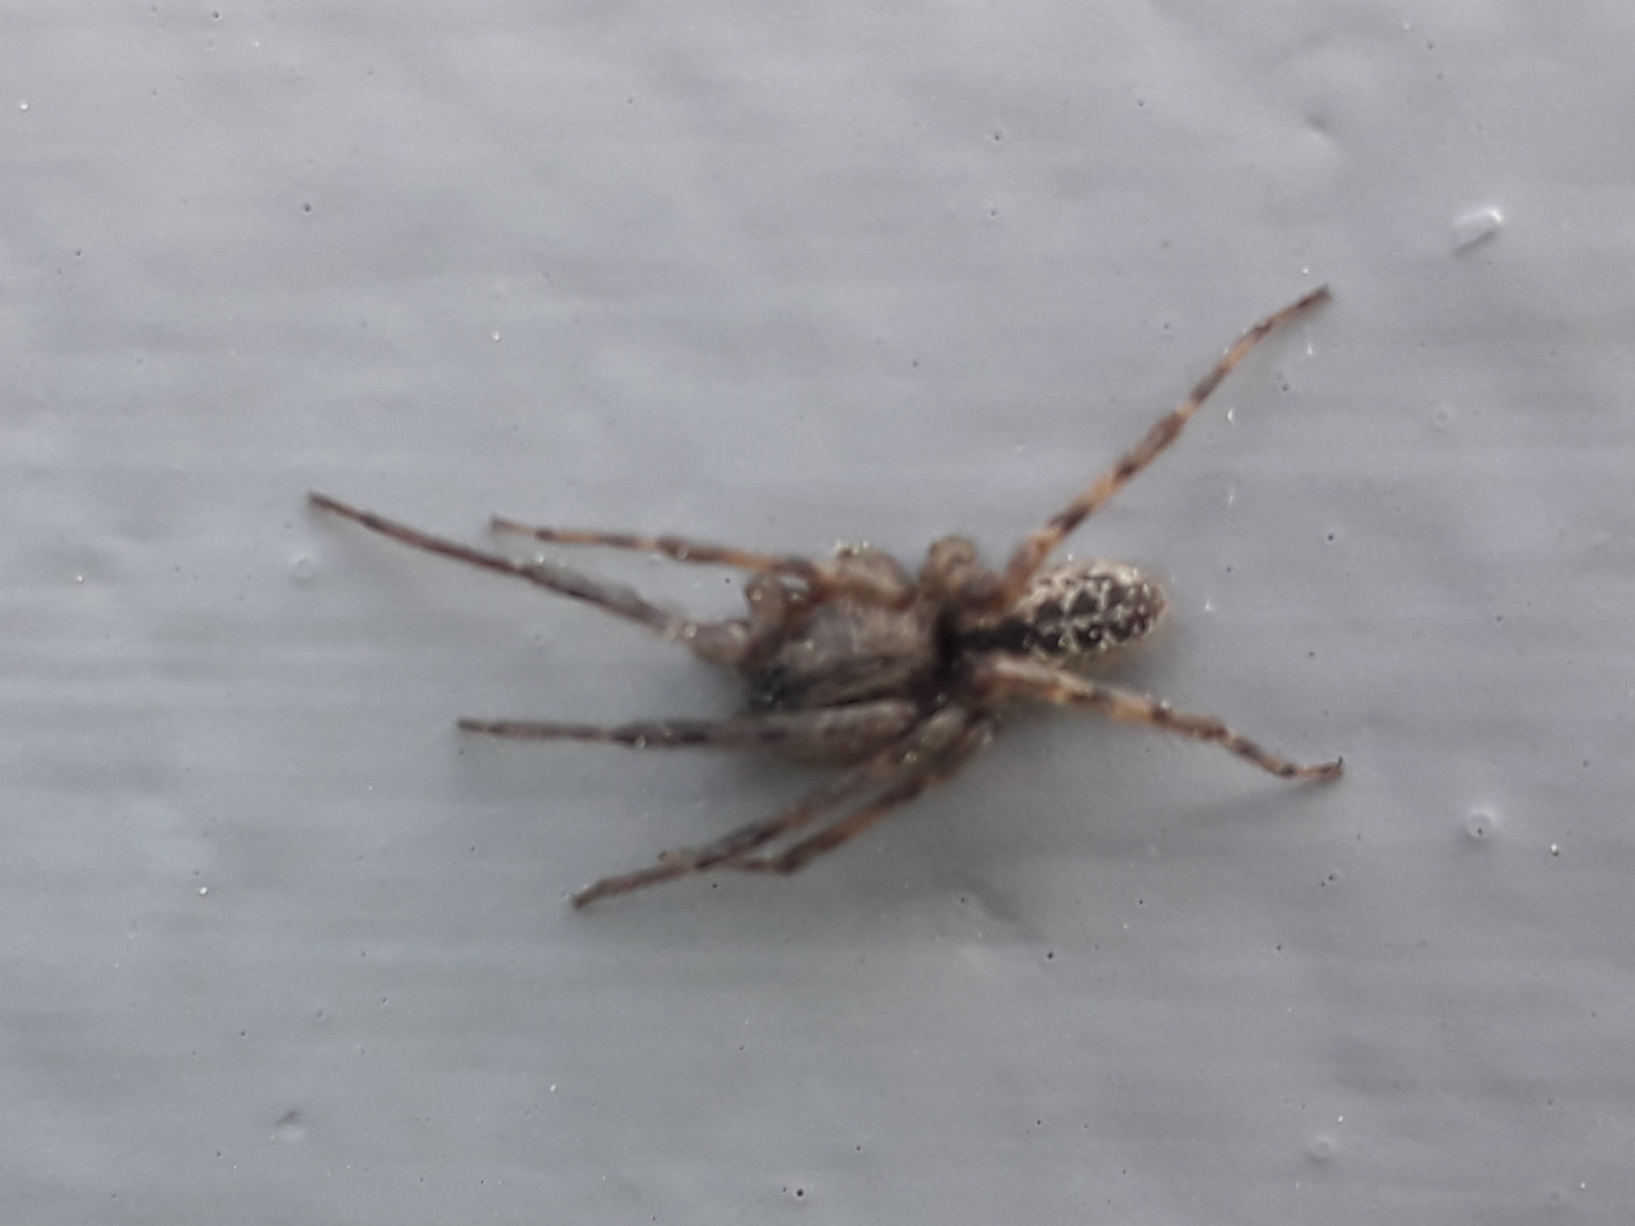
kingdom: Animalia
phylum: Arthropoda
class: Arachnida
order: Araneae
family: Segestriidae
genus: Segestria
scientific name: Segestria bavarica
